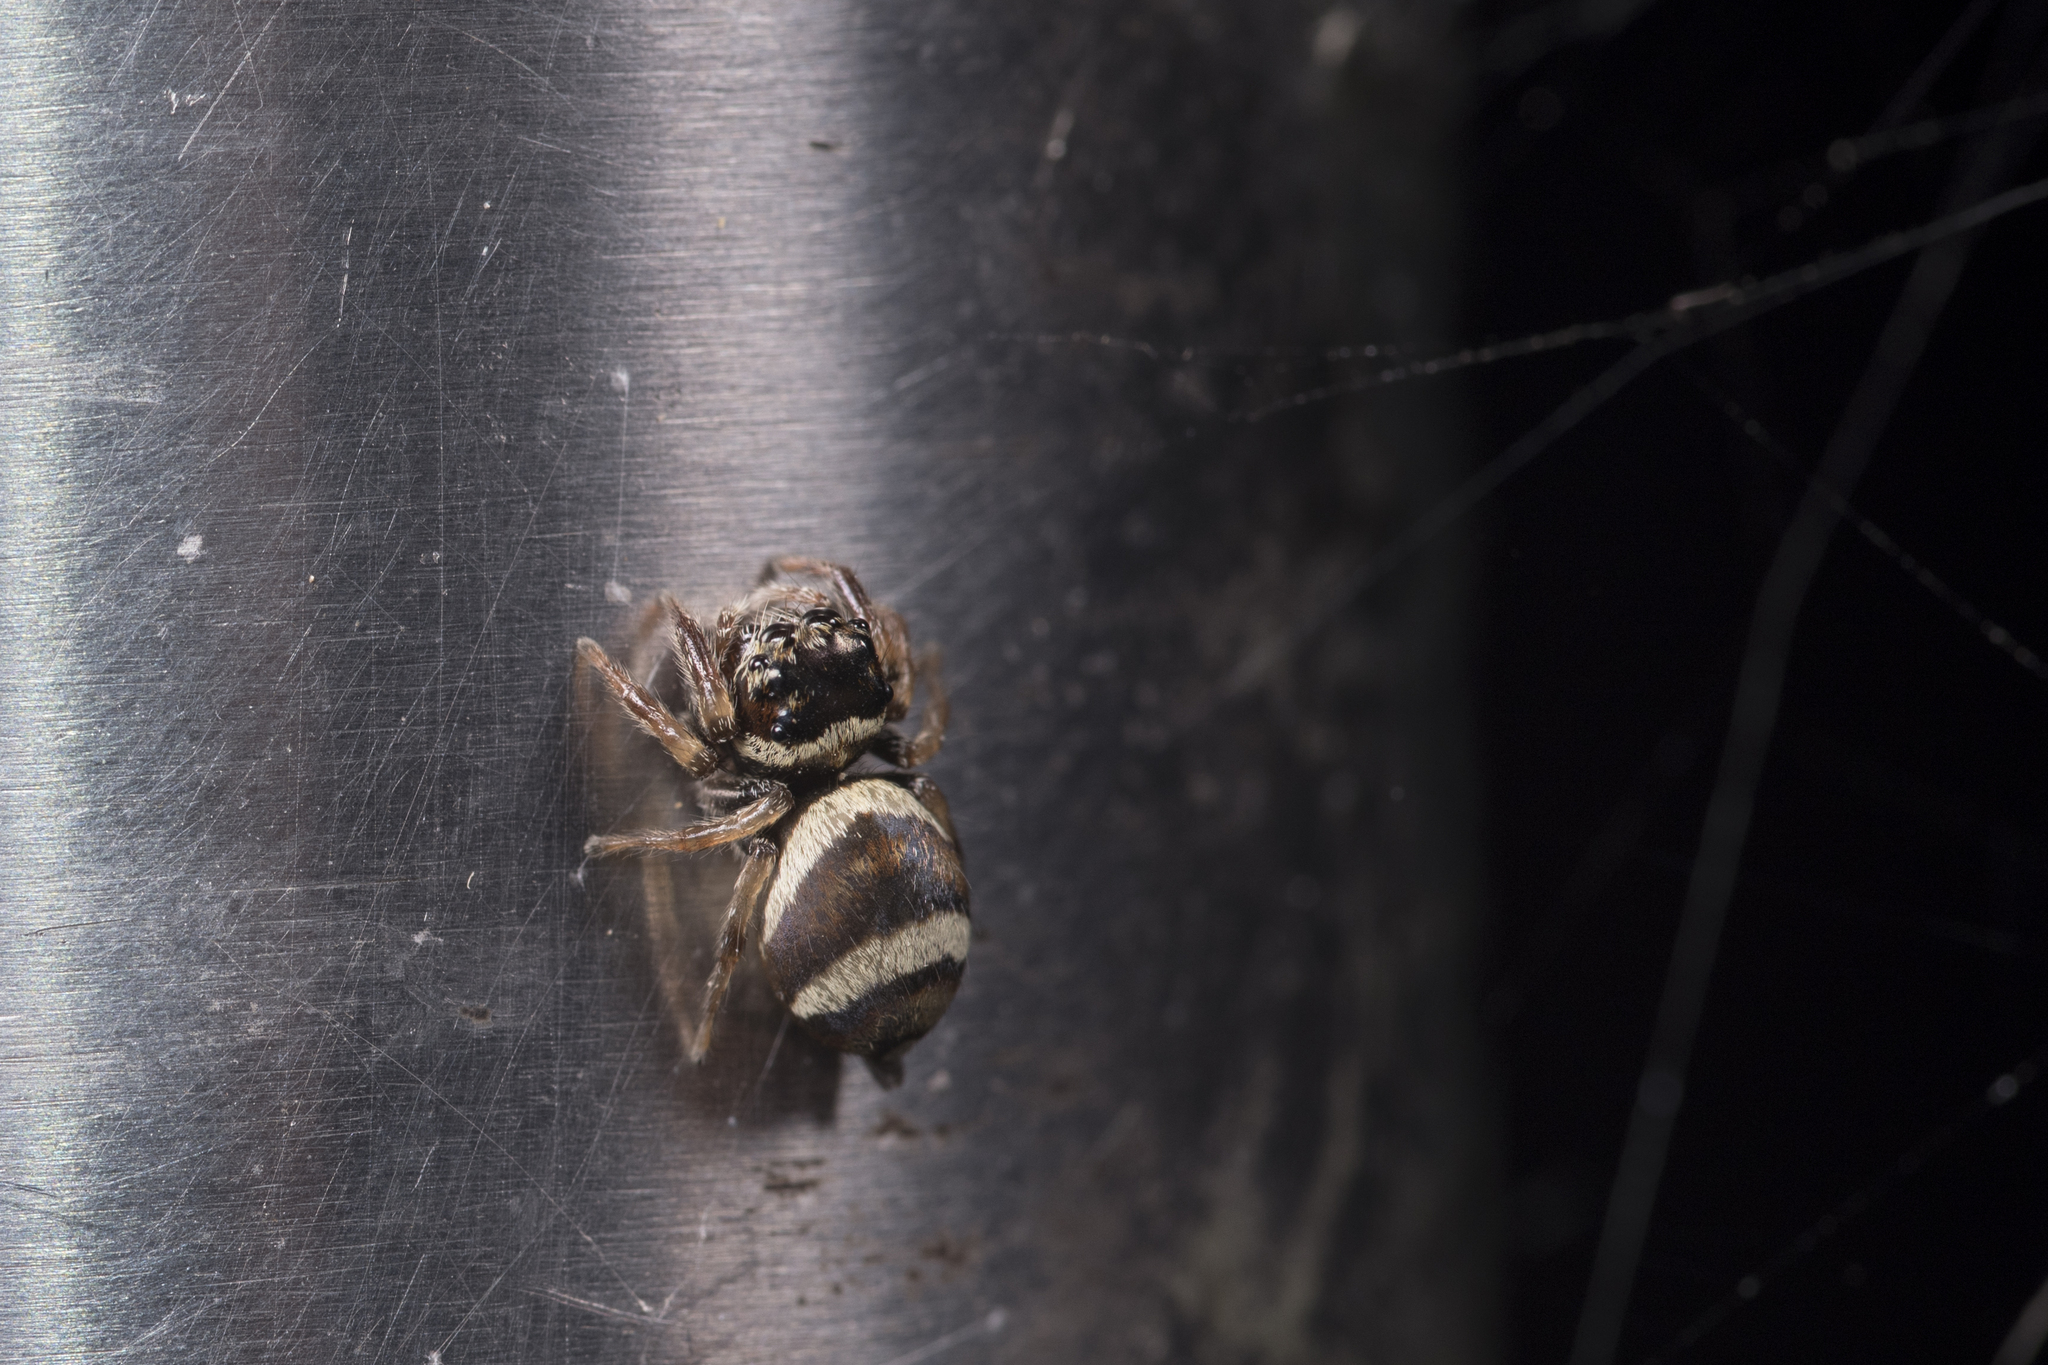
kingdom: Animalia
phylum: Arthropoda
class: Arachnida
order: Araneae
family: Salticidae
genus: Ptocasius
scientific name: Ptocasius strupifer
